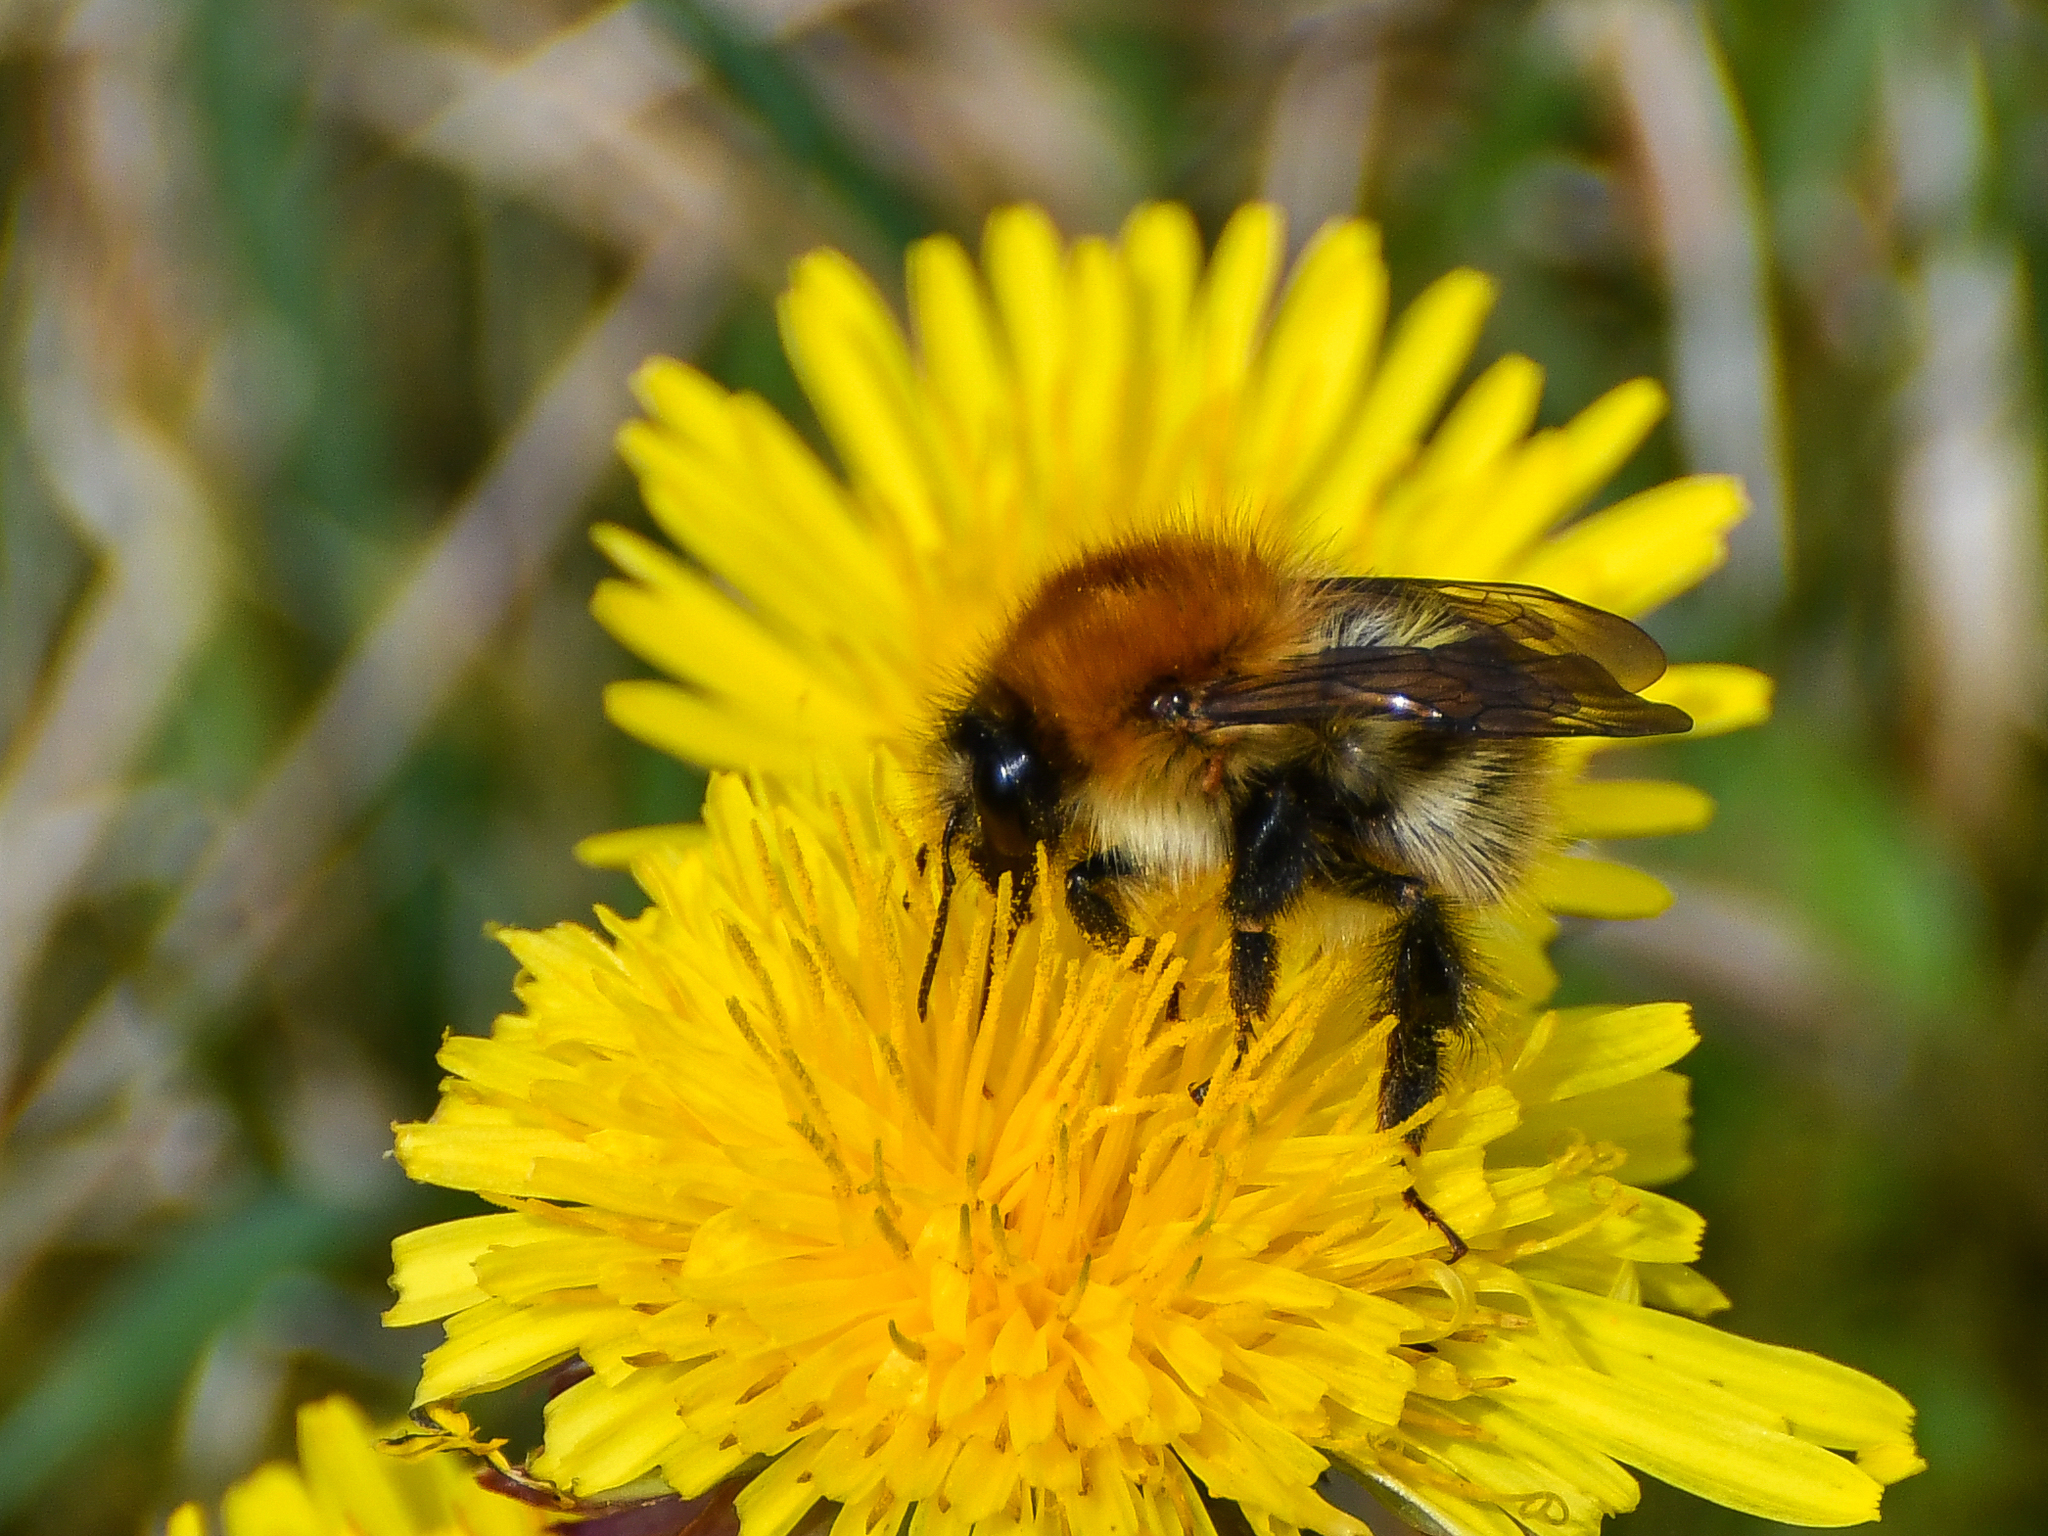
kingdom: Animalia
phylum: Arthropoda
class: Insecta
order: Hymenoptera
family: Apidae
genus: Bombus
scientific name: Bombus pascuorum
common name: Common carder bee
